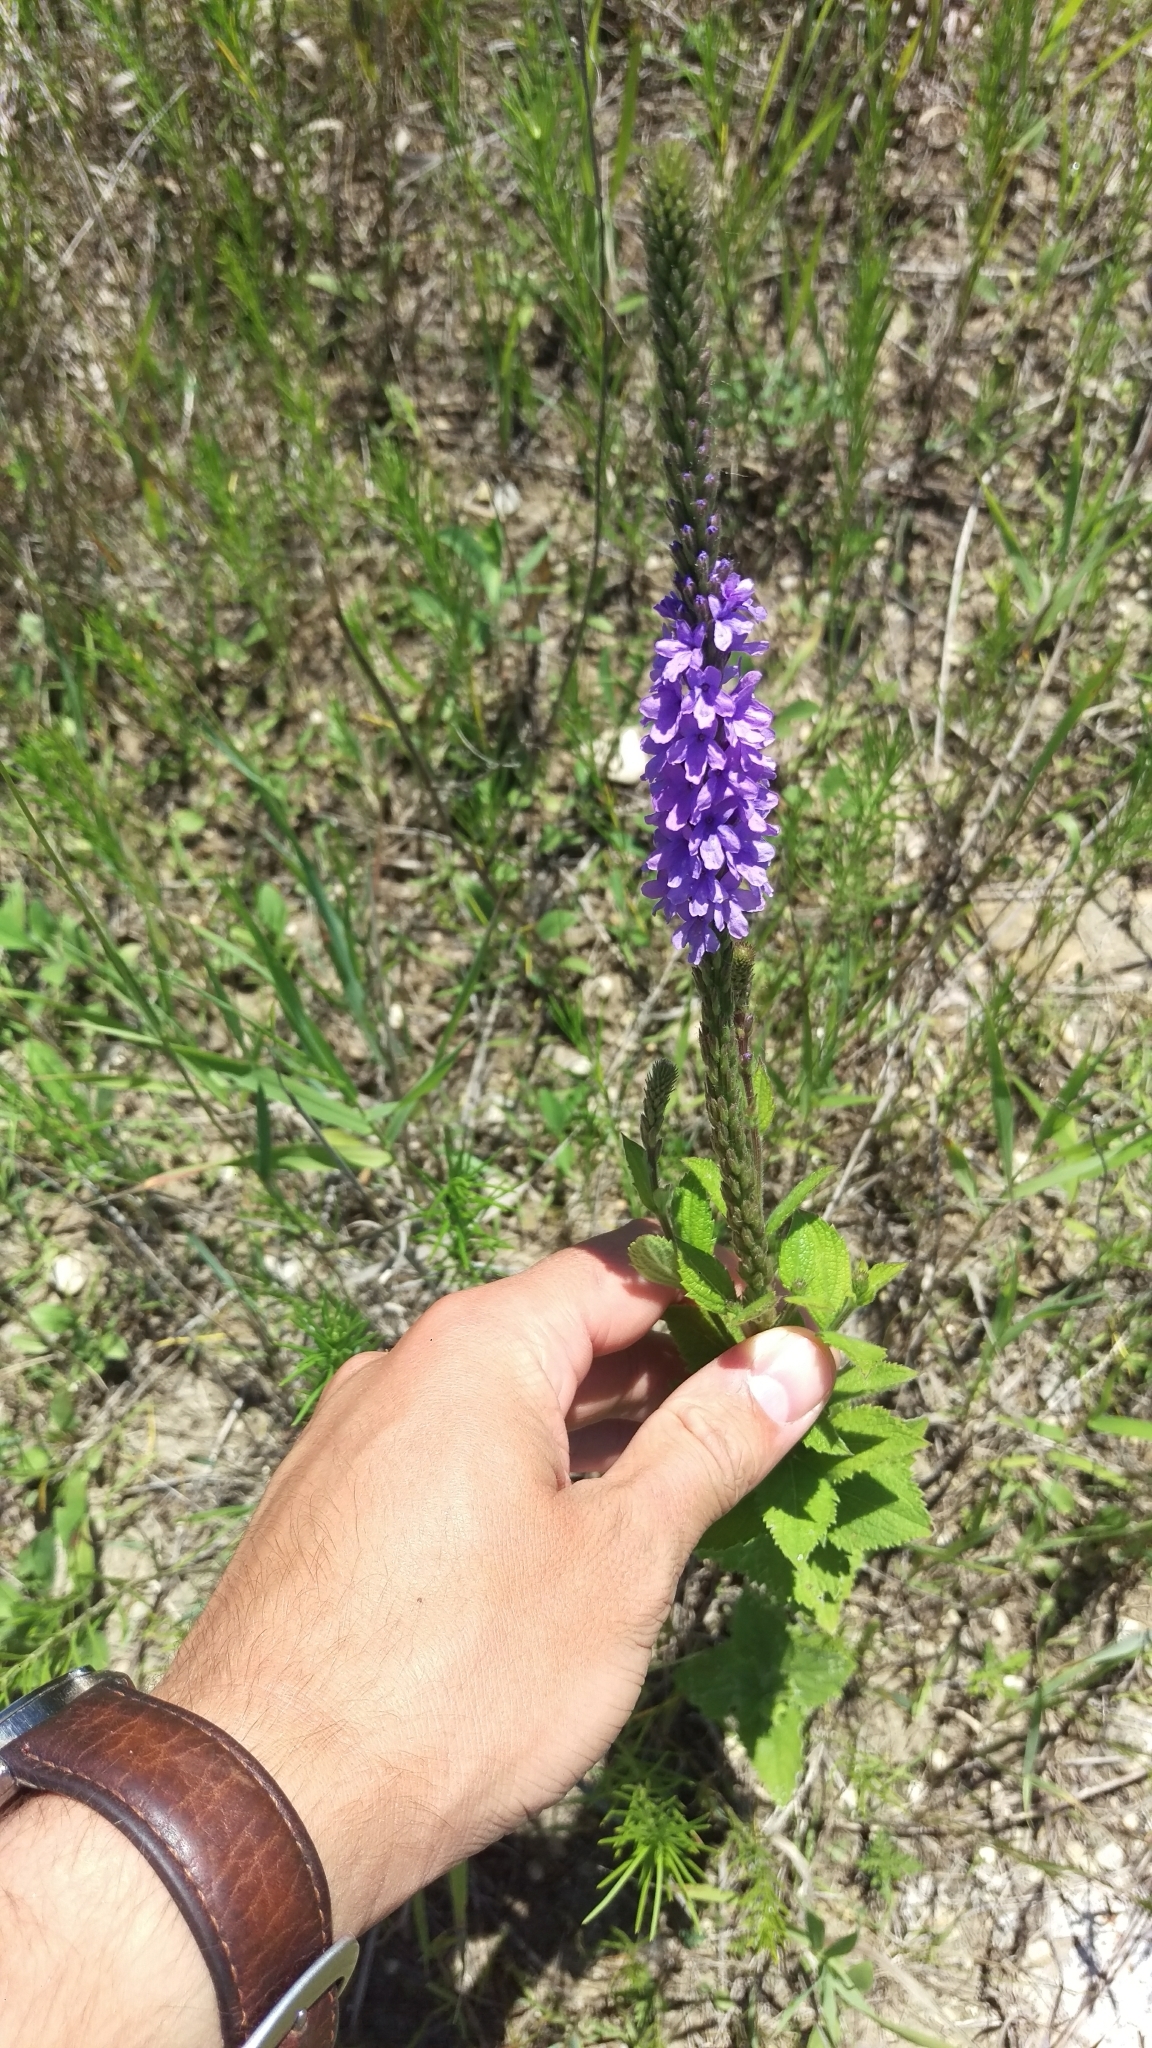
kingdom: Plantae
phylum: Tracheophyta
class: Magnoliopsida
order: Lamiales
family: Verbenaceae
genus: Verbena
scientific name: Verbena stricta
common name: Hoary vervain
